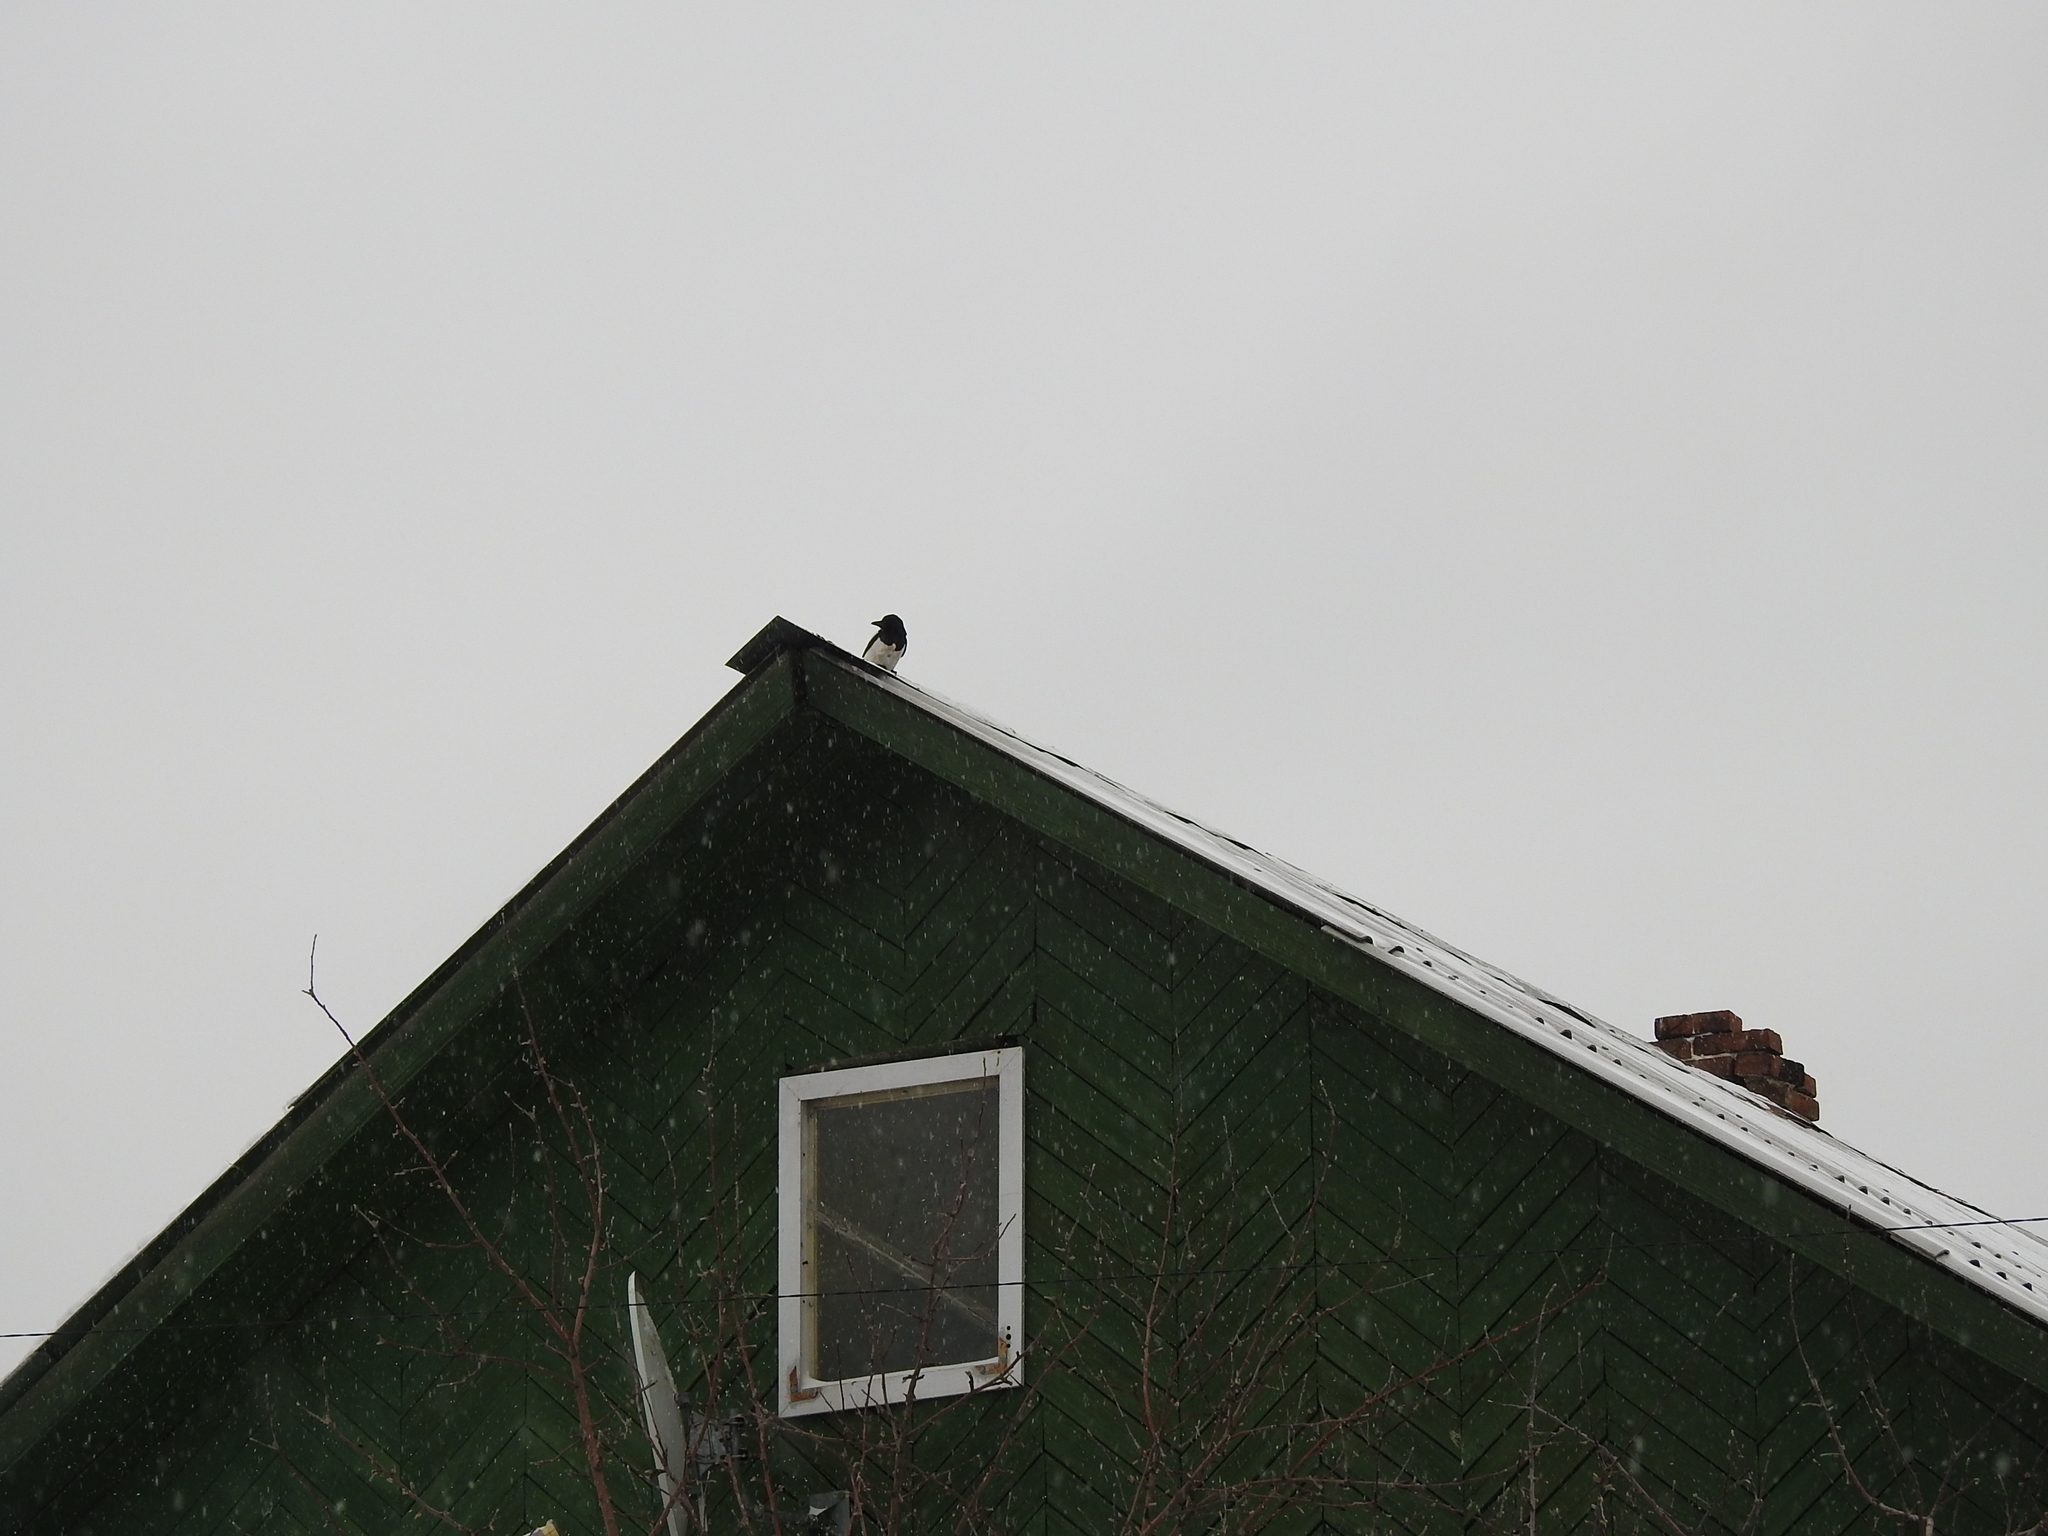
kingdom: Animalia
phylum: Chordata
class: Aves
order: Passeriformes
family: Corvidae
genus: Pica
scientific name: Pica pica
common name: Eurasian magpie
